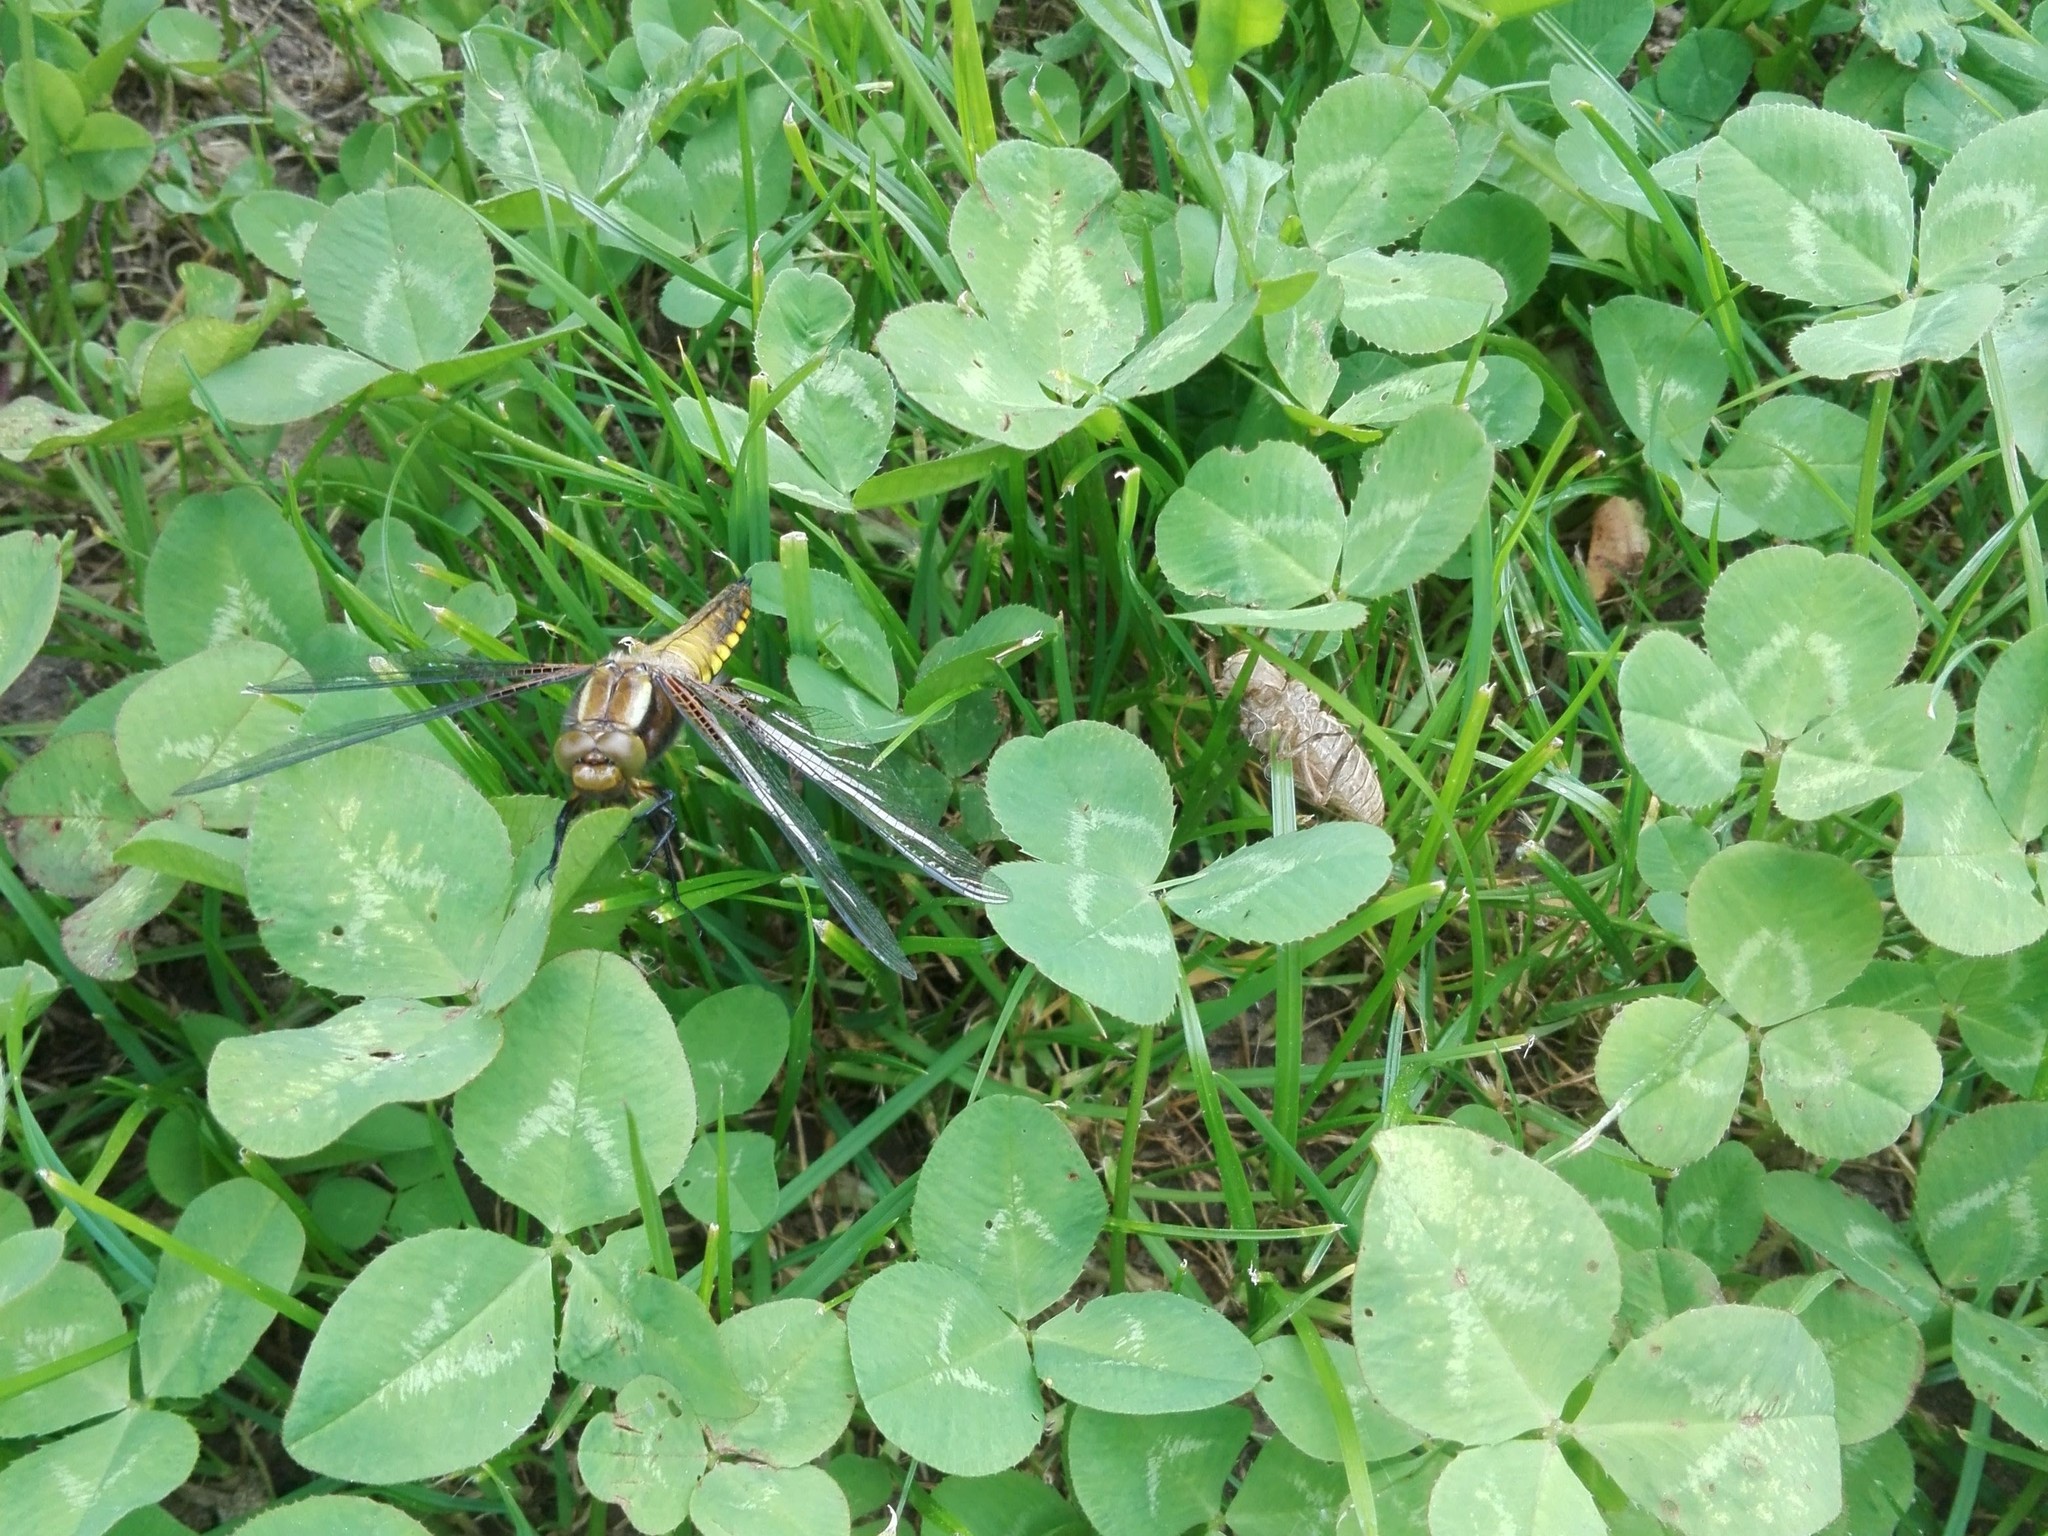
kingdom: Animalia
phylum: Arthropoda
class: Insecta
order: Odonata
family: Libellulidae
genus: Libellula
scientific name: Libellula depressa
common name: Broad-bodied chaser
